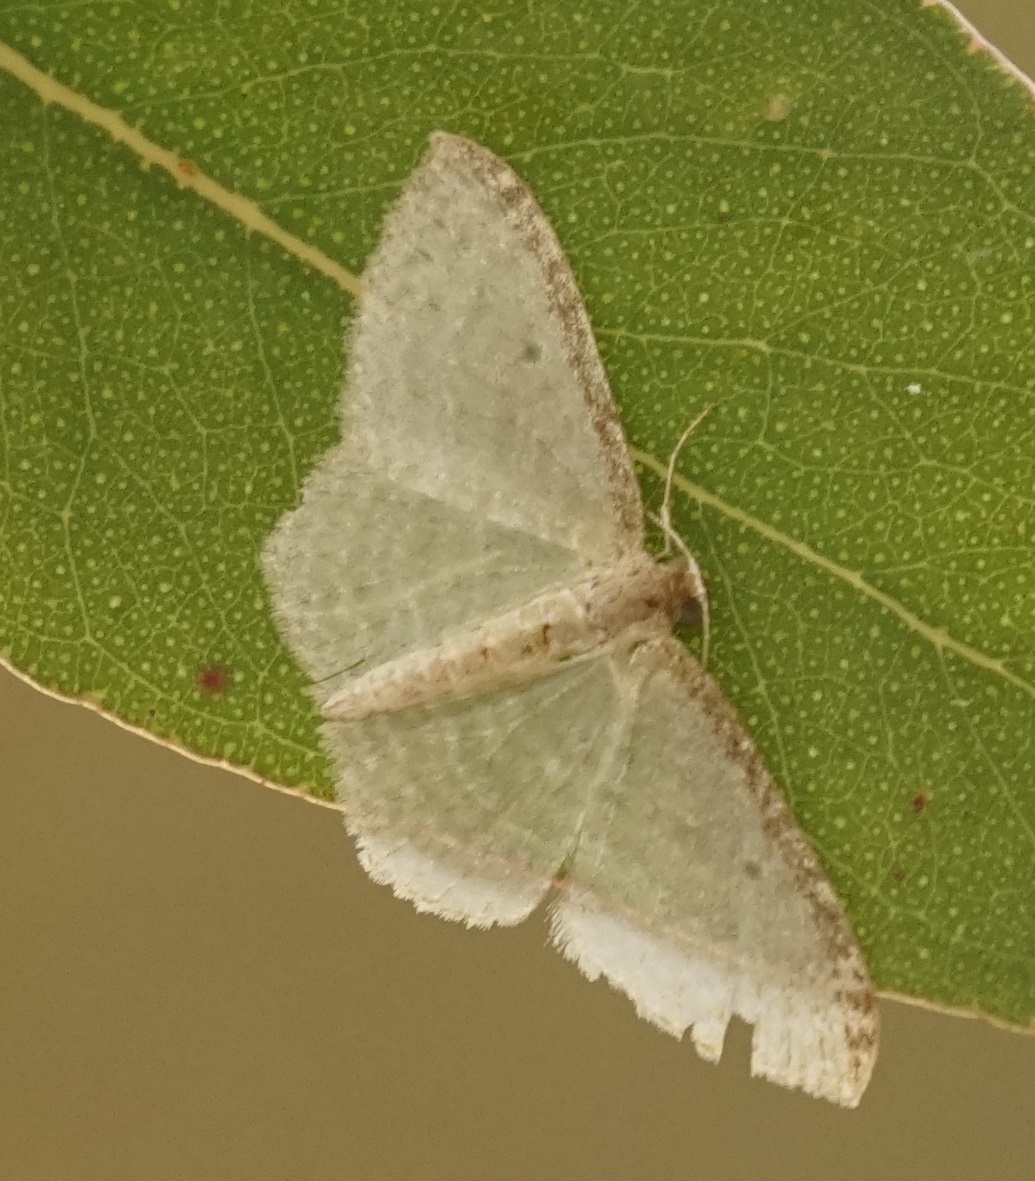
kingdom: Animalia
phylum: Arthropoda
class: Insecta
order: Lepidoptera
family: Geometridae
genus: Poecilasthena
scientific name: Poecilasthena pulchraria
